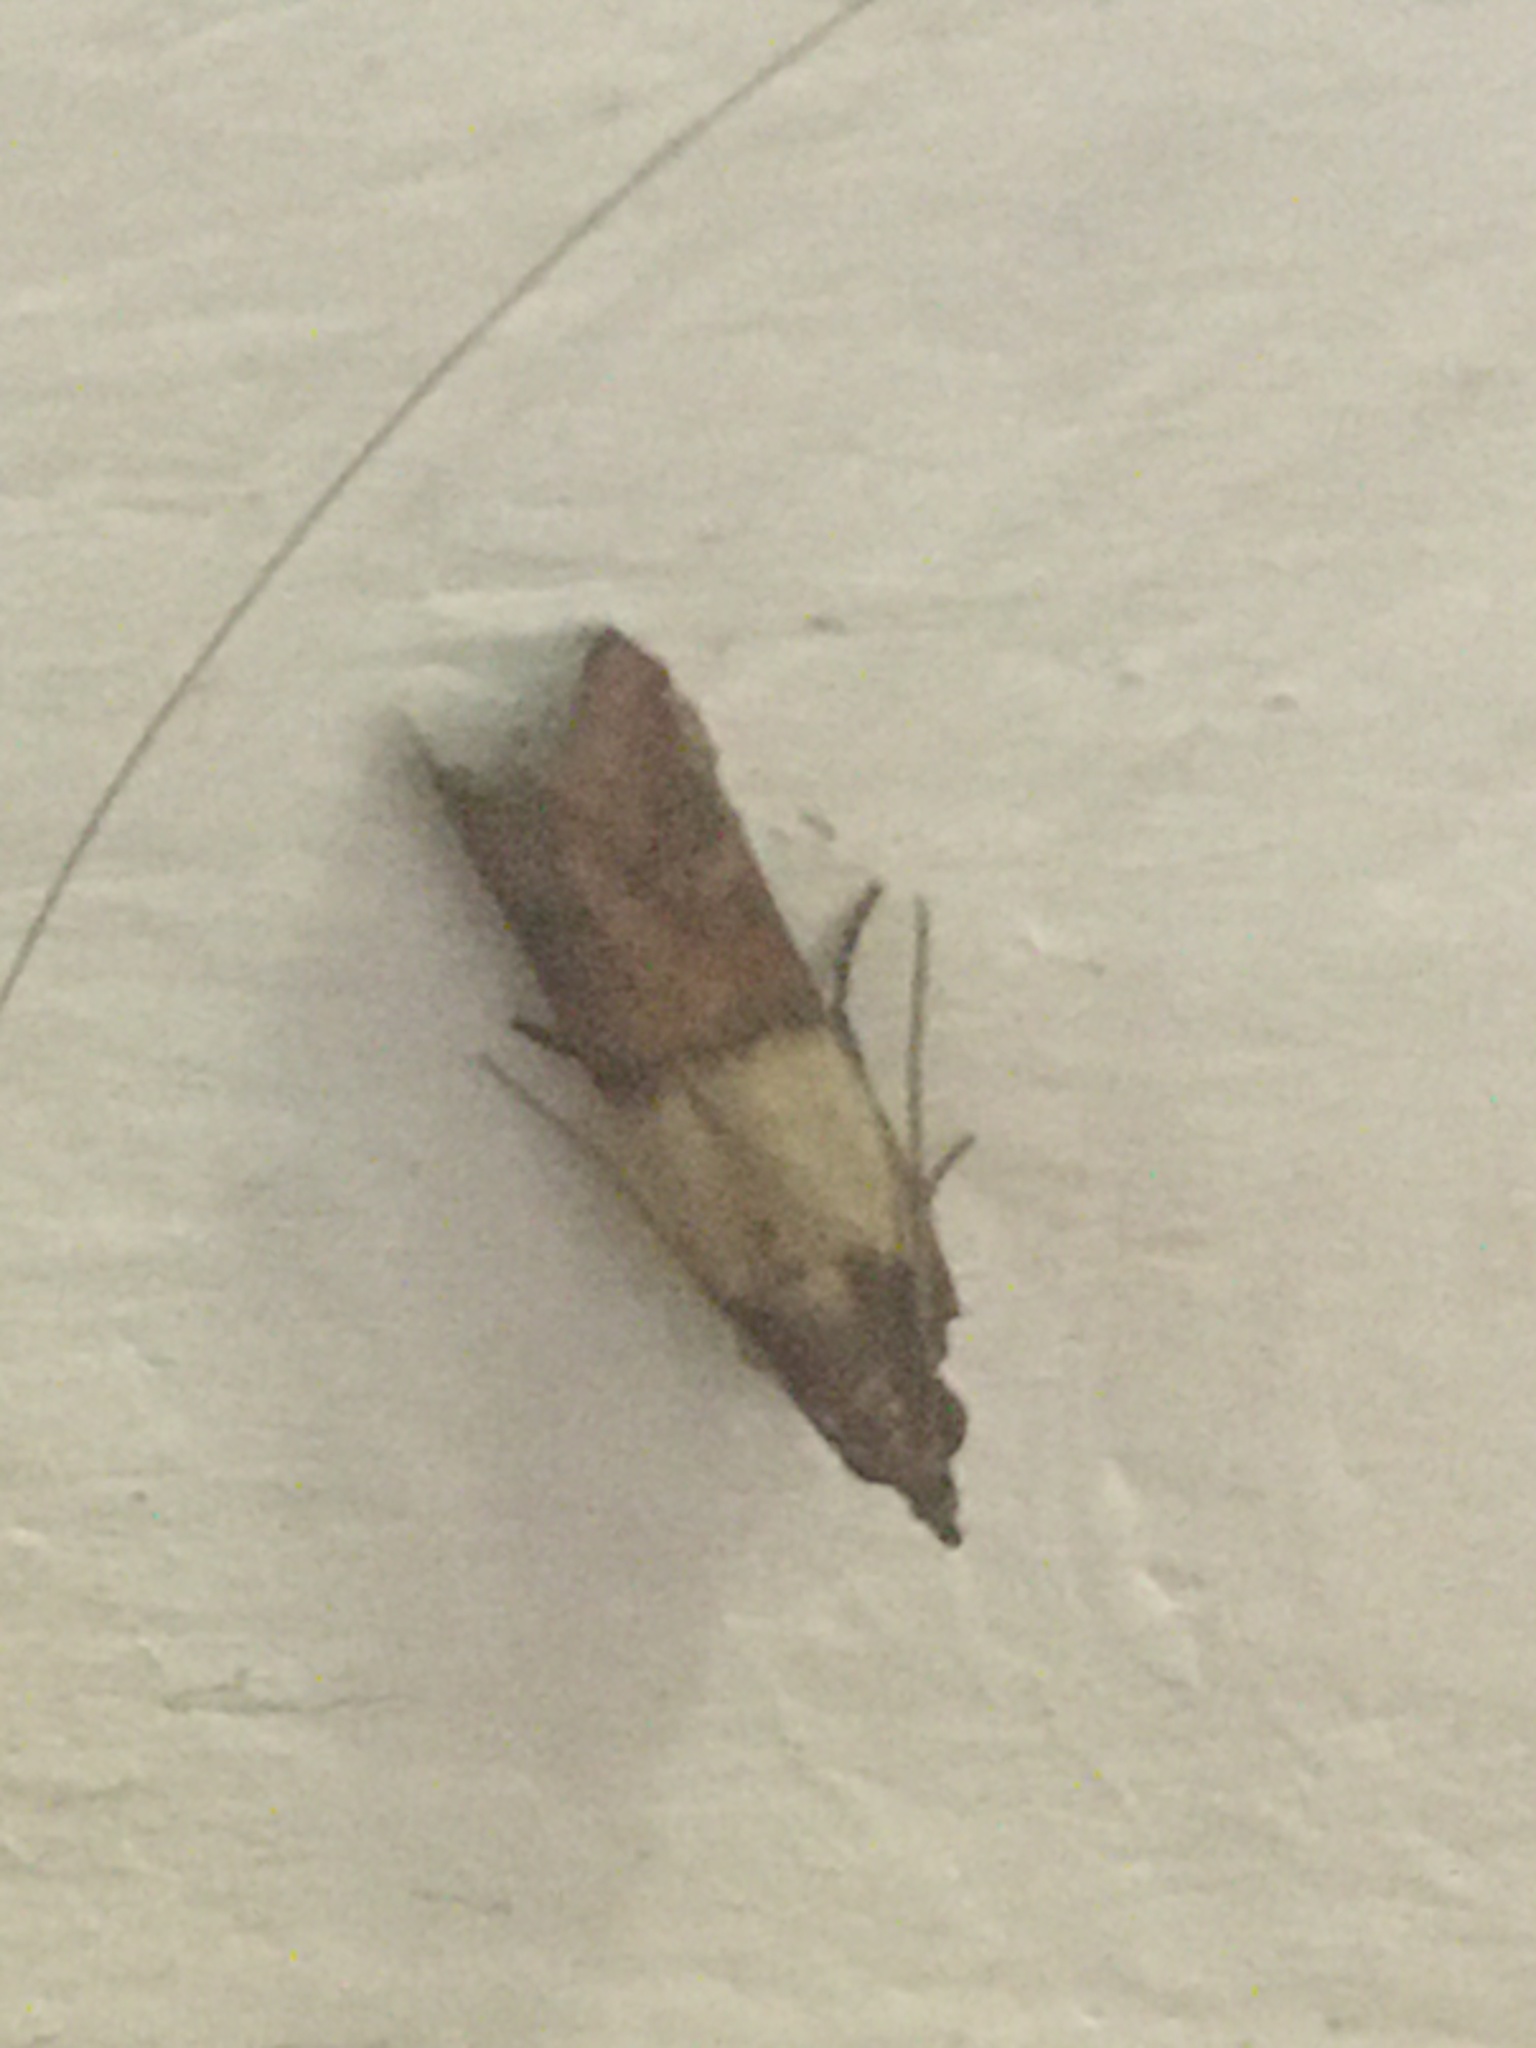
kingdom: Animalia
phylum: Arthropoda
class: Insecta
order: Lepidoptera
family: Pyralidae
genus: Plodia
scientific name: Plodia interpunctella
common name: Indian meal moth
